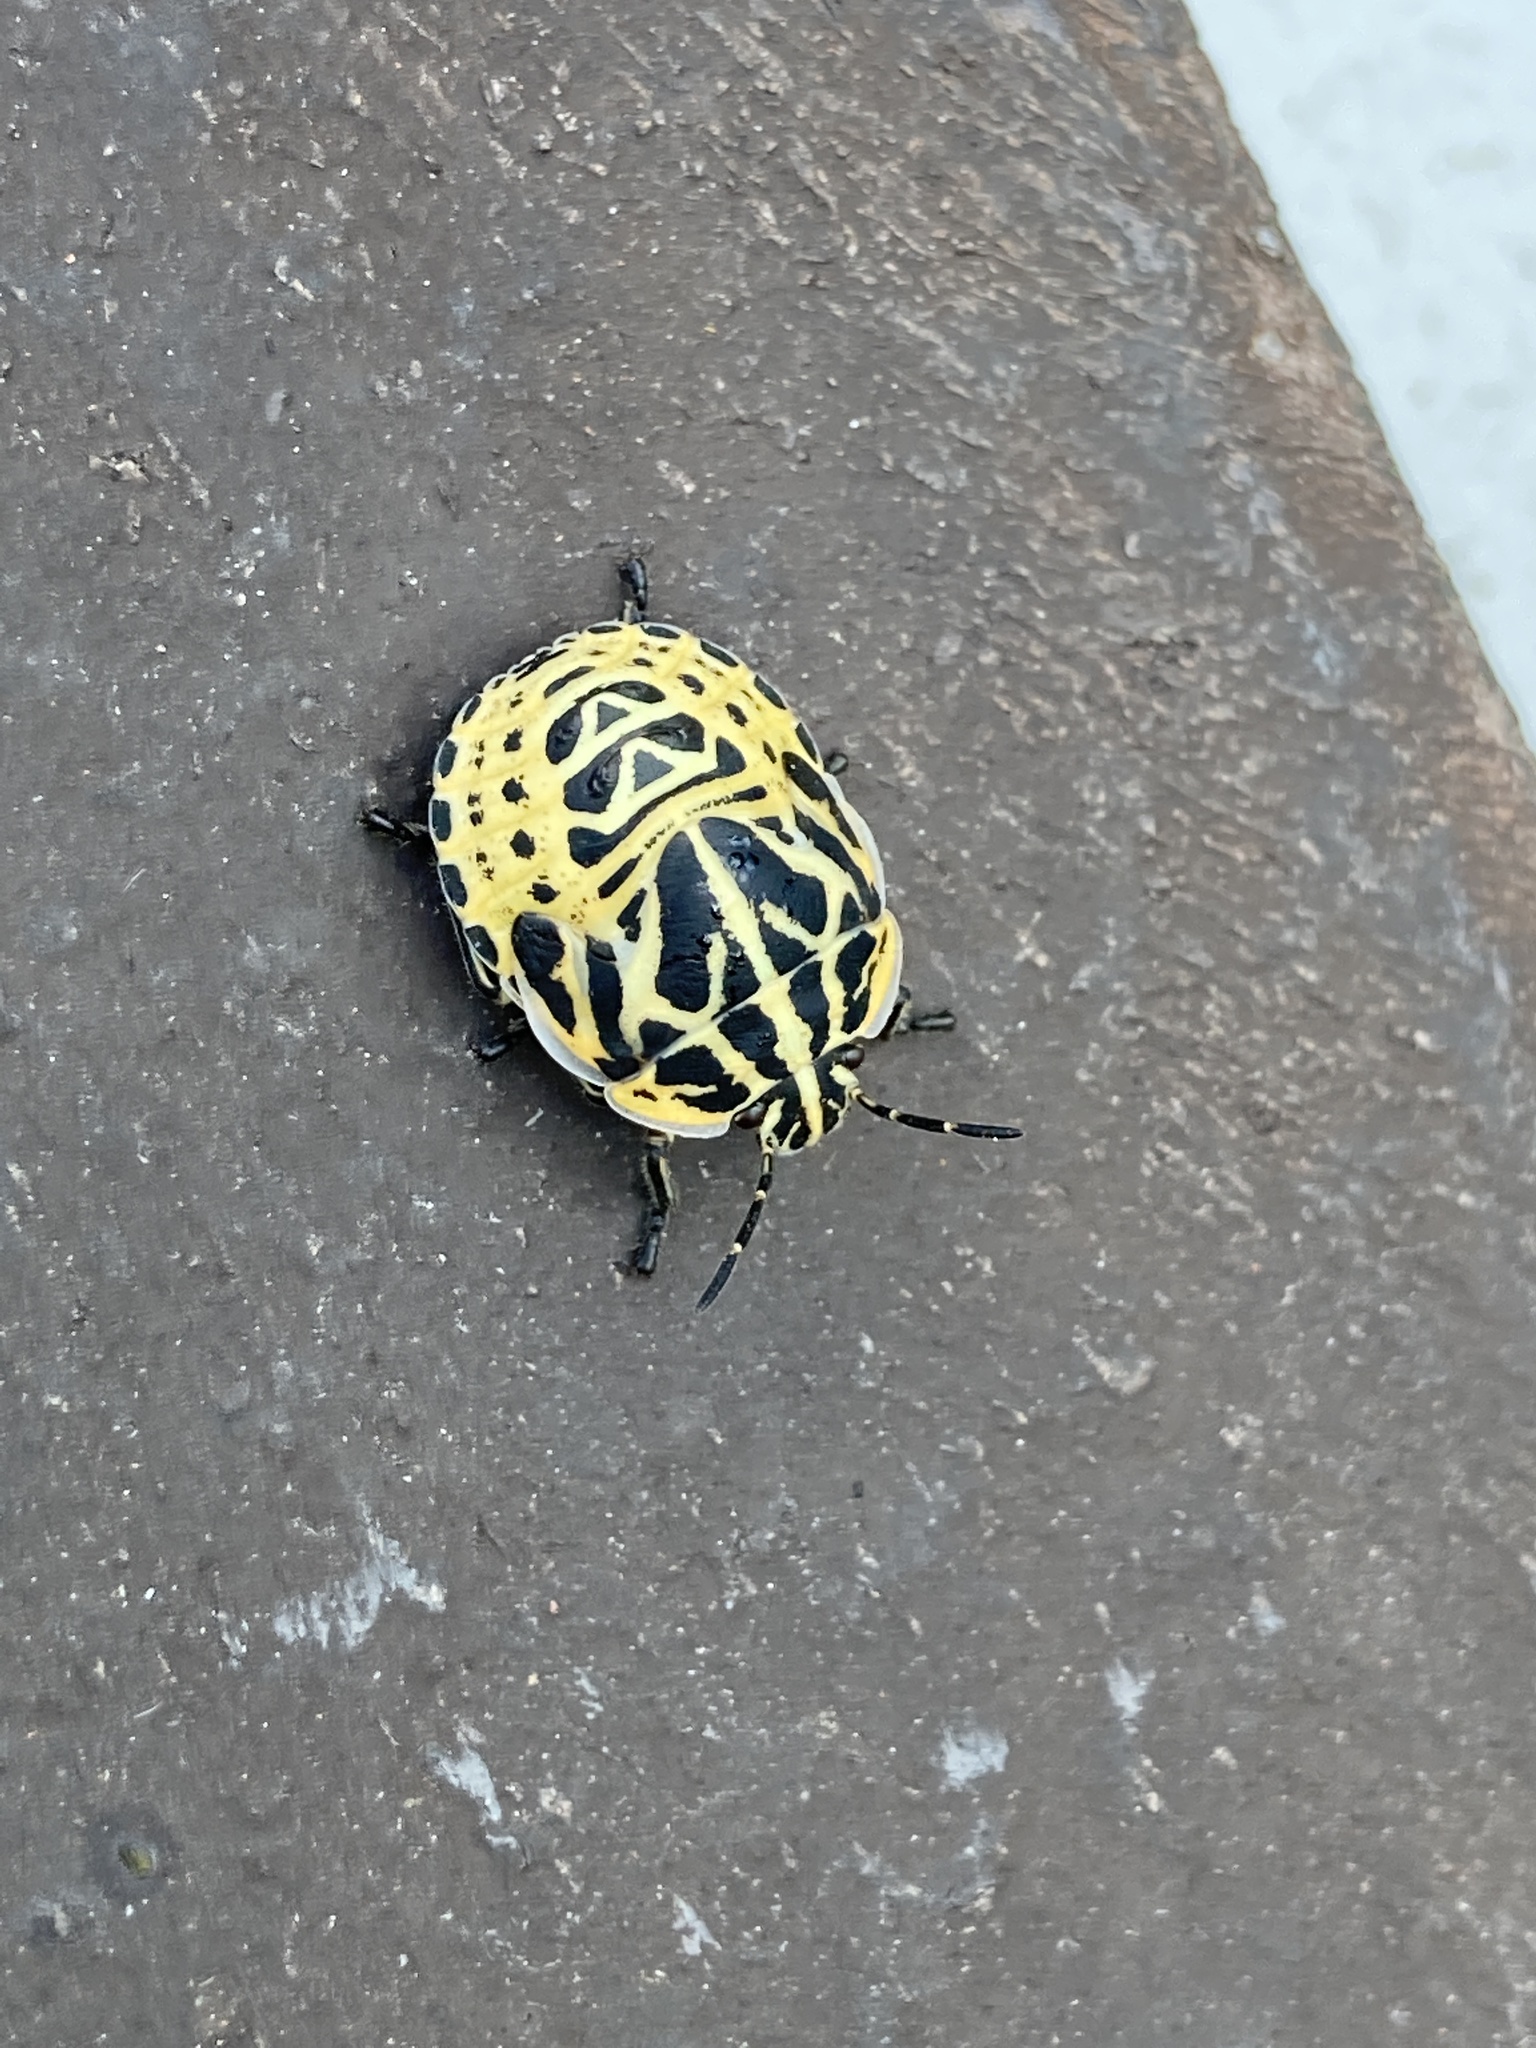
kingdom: Animalia
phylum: Arthropoda
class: Insecta
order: Hemiptera
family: Scutelleridae
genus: Tetyra
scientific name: Tetyra
